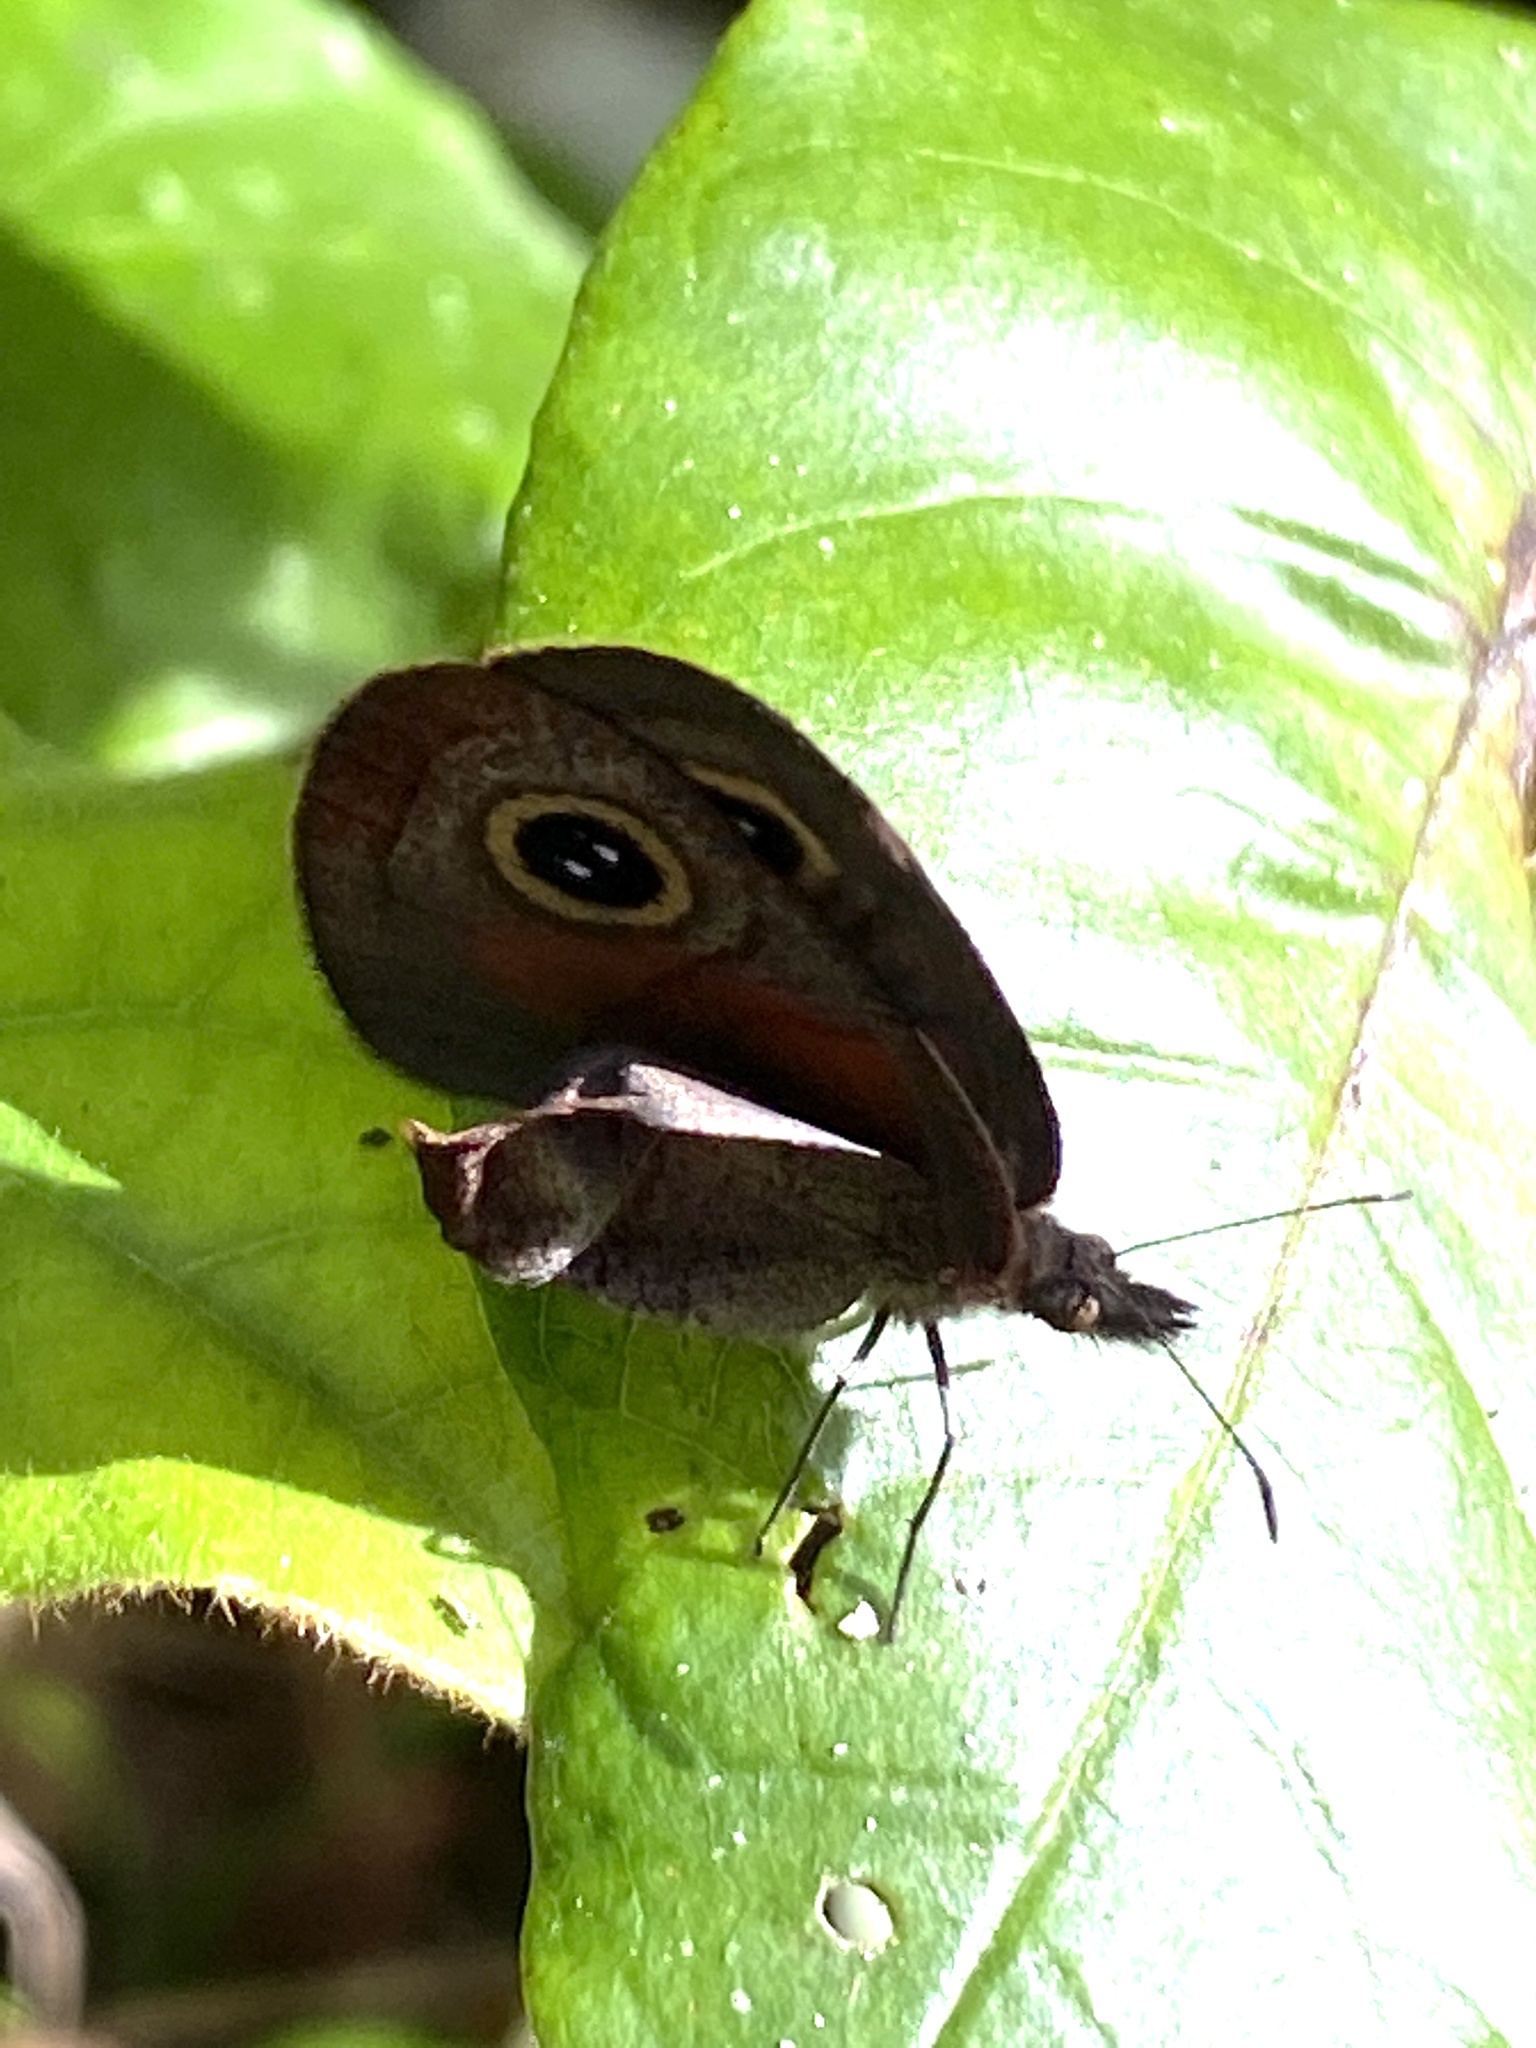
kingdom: Animalia
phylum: Arthropoda
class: Insecta
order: Lepidoptera
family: Nymphalidae
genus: Cassionympha
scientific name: Cassionympha cassius
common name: Rainforest brown
